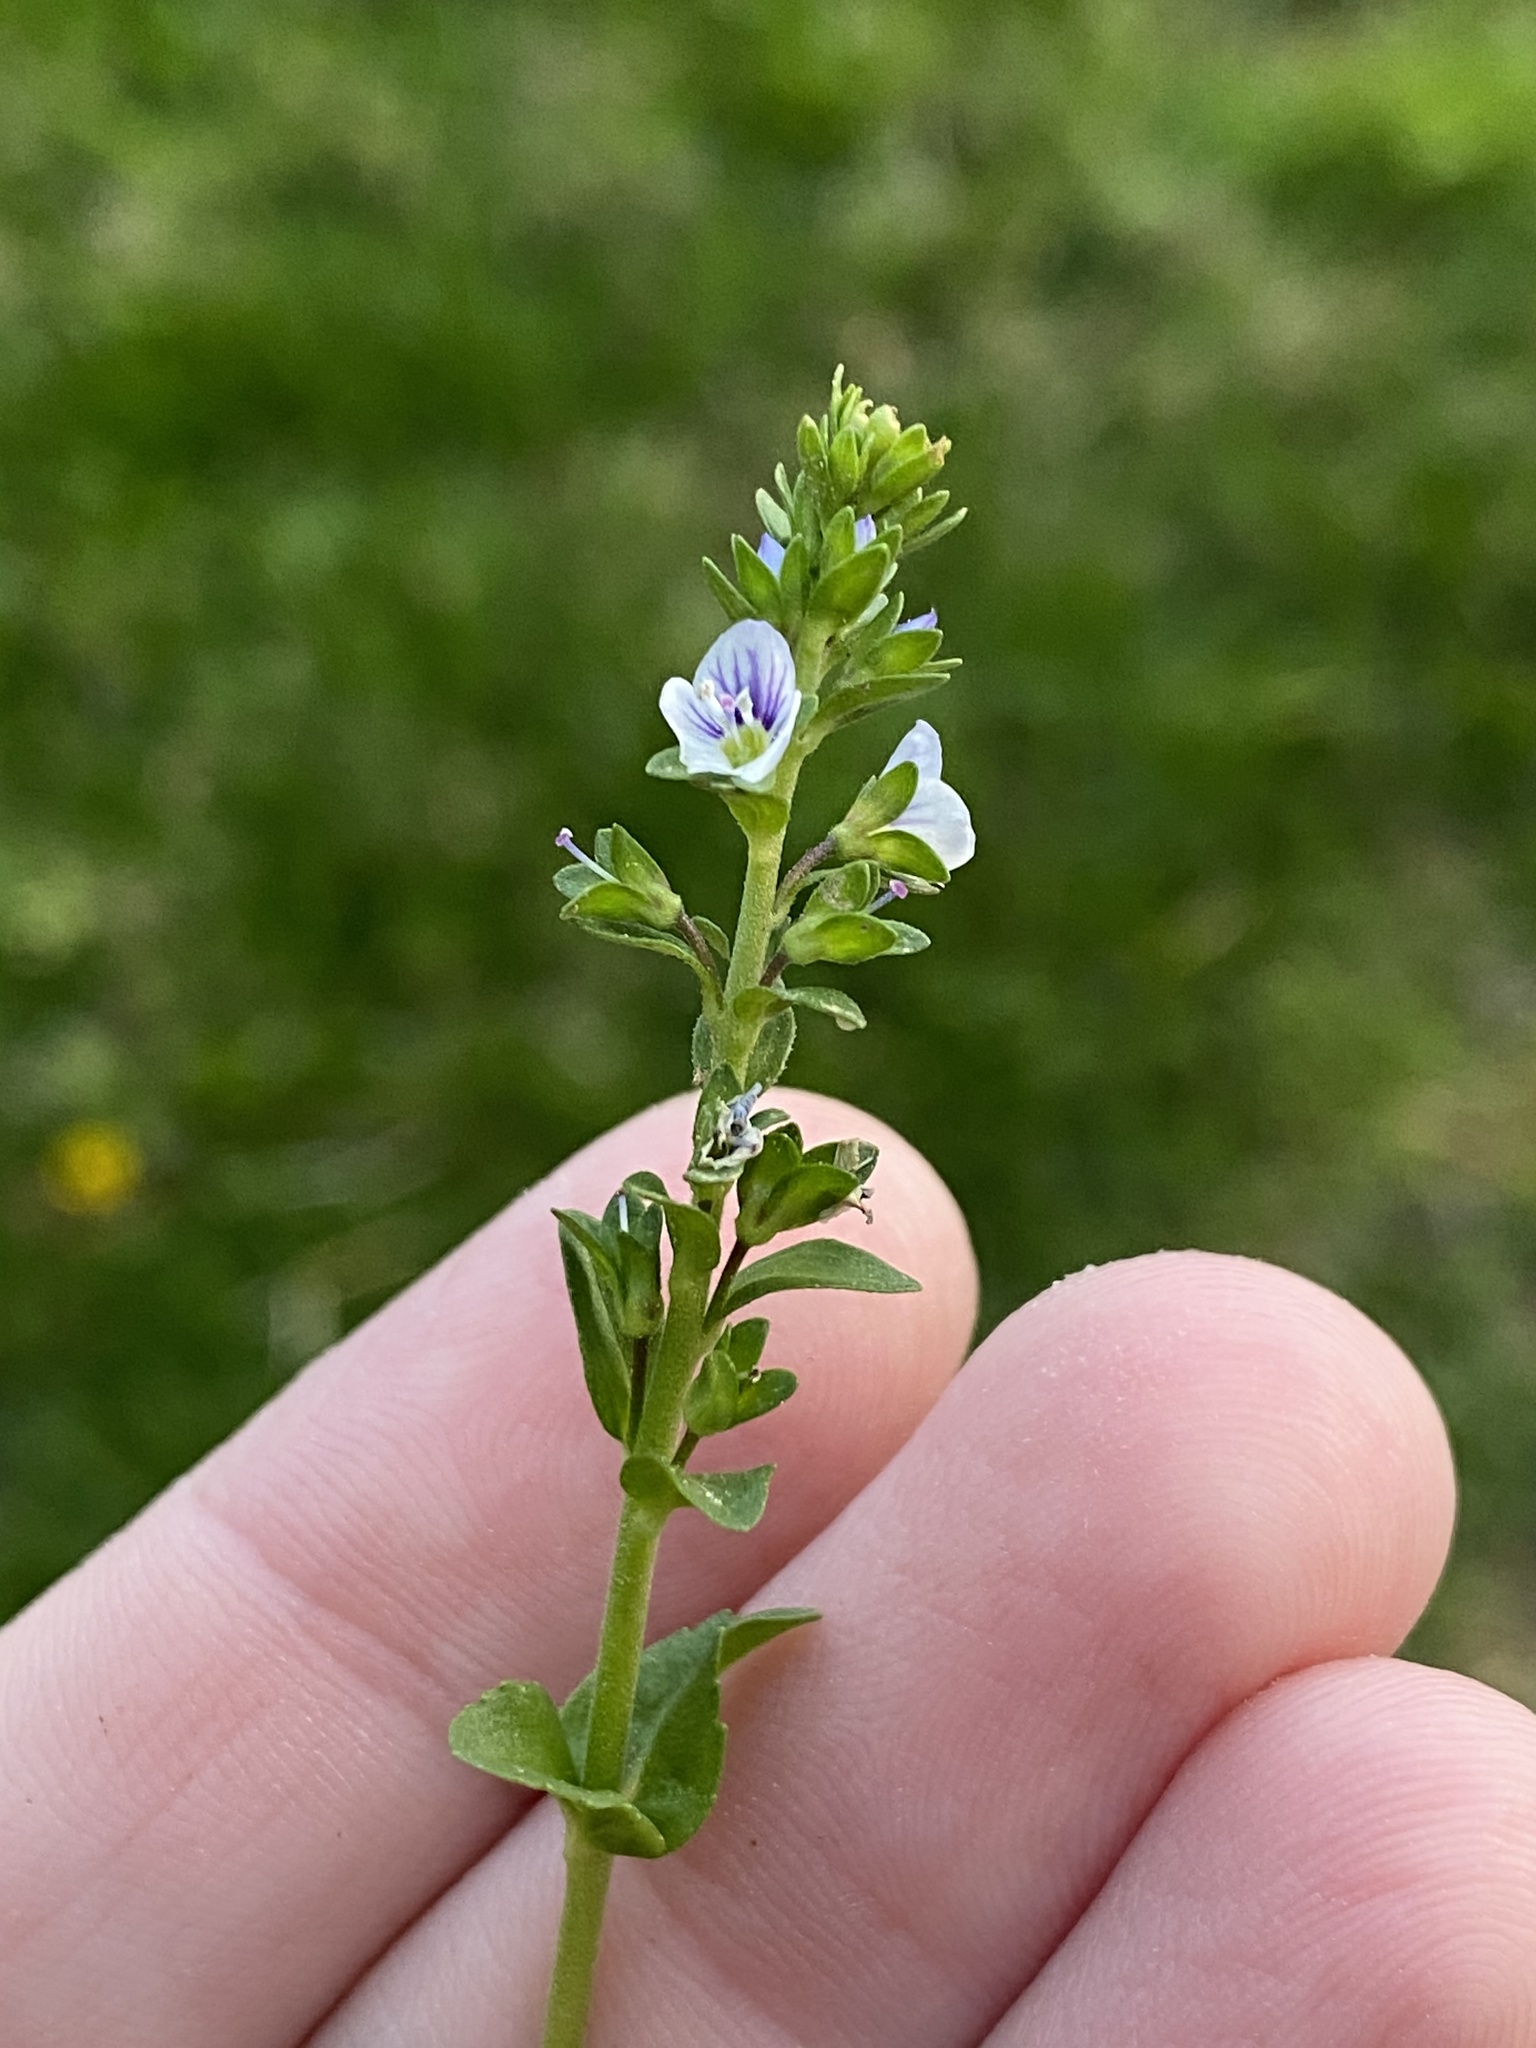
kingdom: Plantae
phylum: Tracheophyta
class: Magnoliopsida
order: Lamiales
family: Plantaginaceae
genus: Veronica
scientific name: Veronica serpyllifolia
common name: Thyme-leaved speedwell
